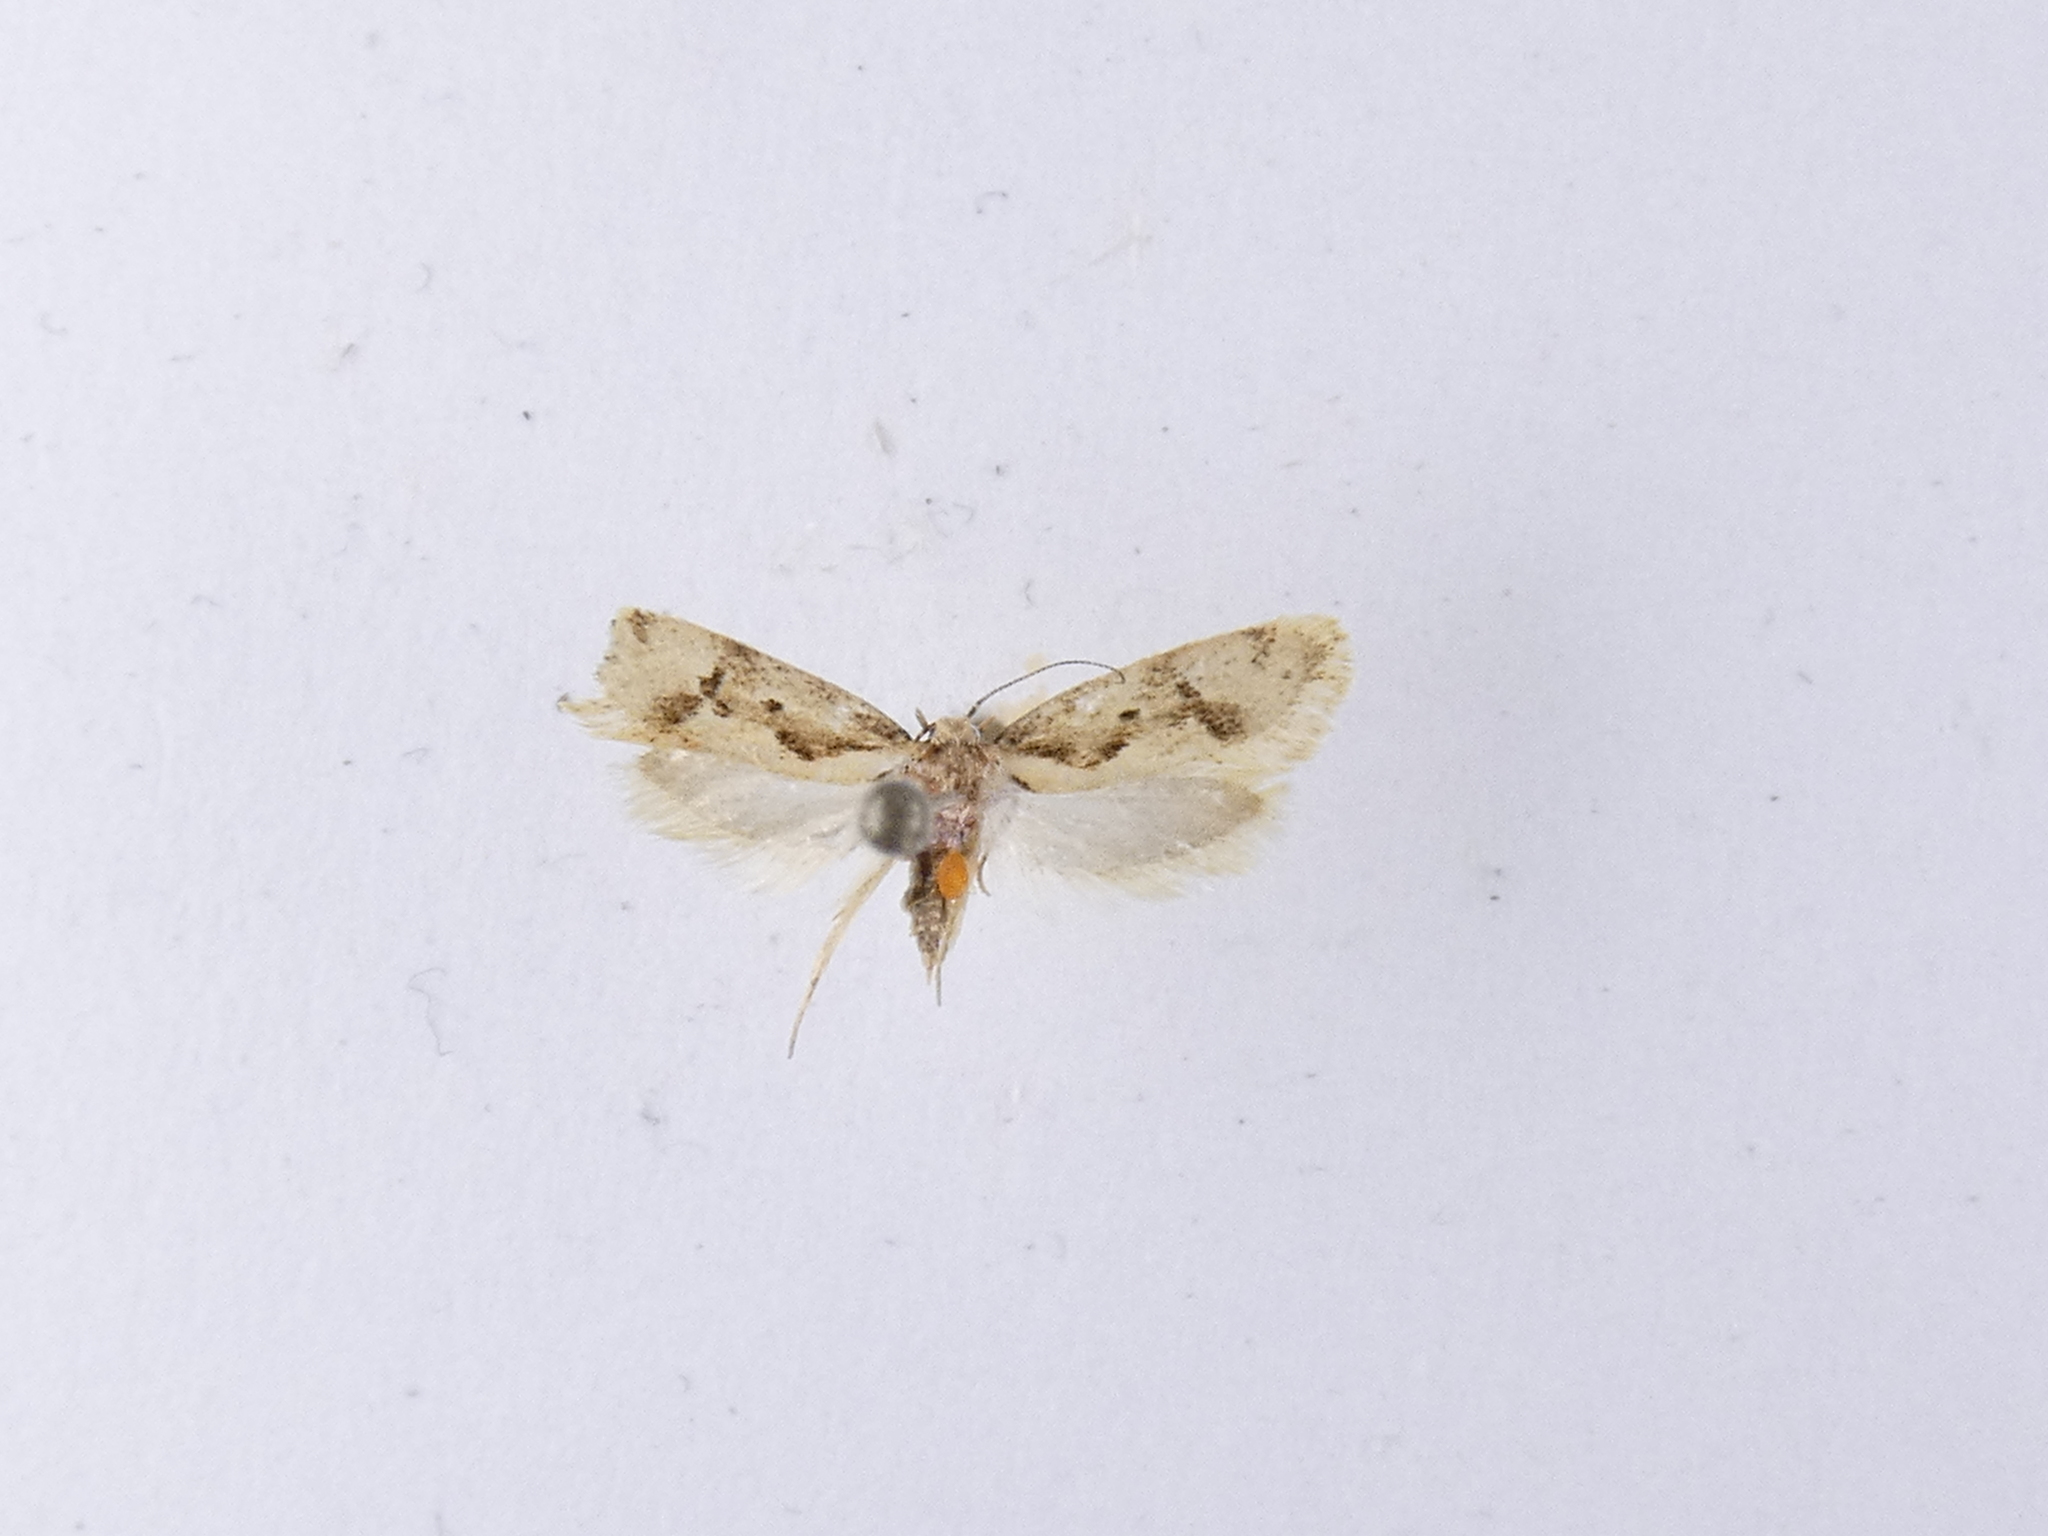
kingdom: Animalia
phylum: Arthropoda
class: Insecta
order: Lepidoptera
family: Oecophoridae
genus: Tingena
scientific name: Tingena ancogramma
